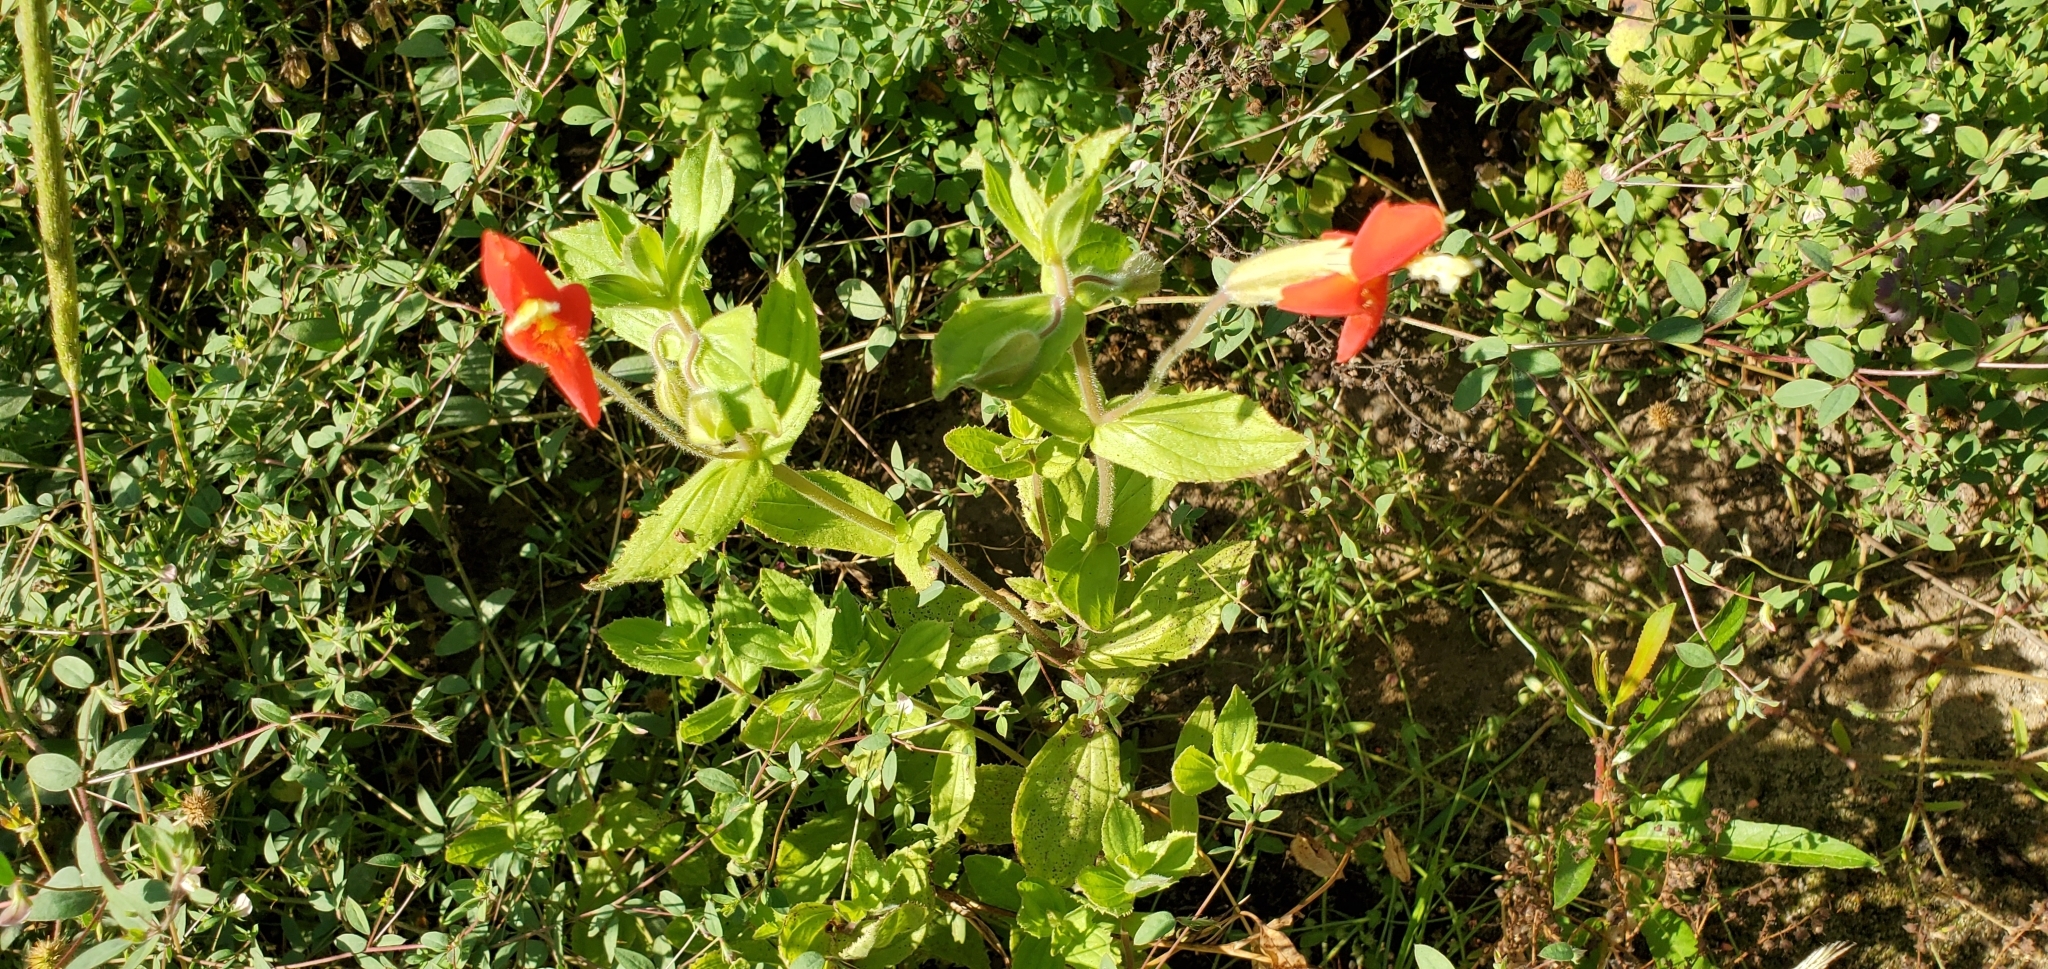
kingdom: Plantae
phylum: Tracheophyta
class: Magnoliopsida
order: Lamiales
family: Phrymaceae
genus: Erythranthe
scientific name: Erythranthe cardinalis
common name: Scarlet monkey-flower
